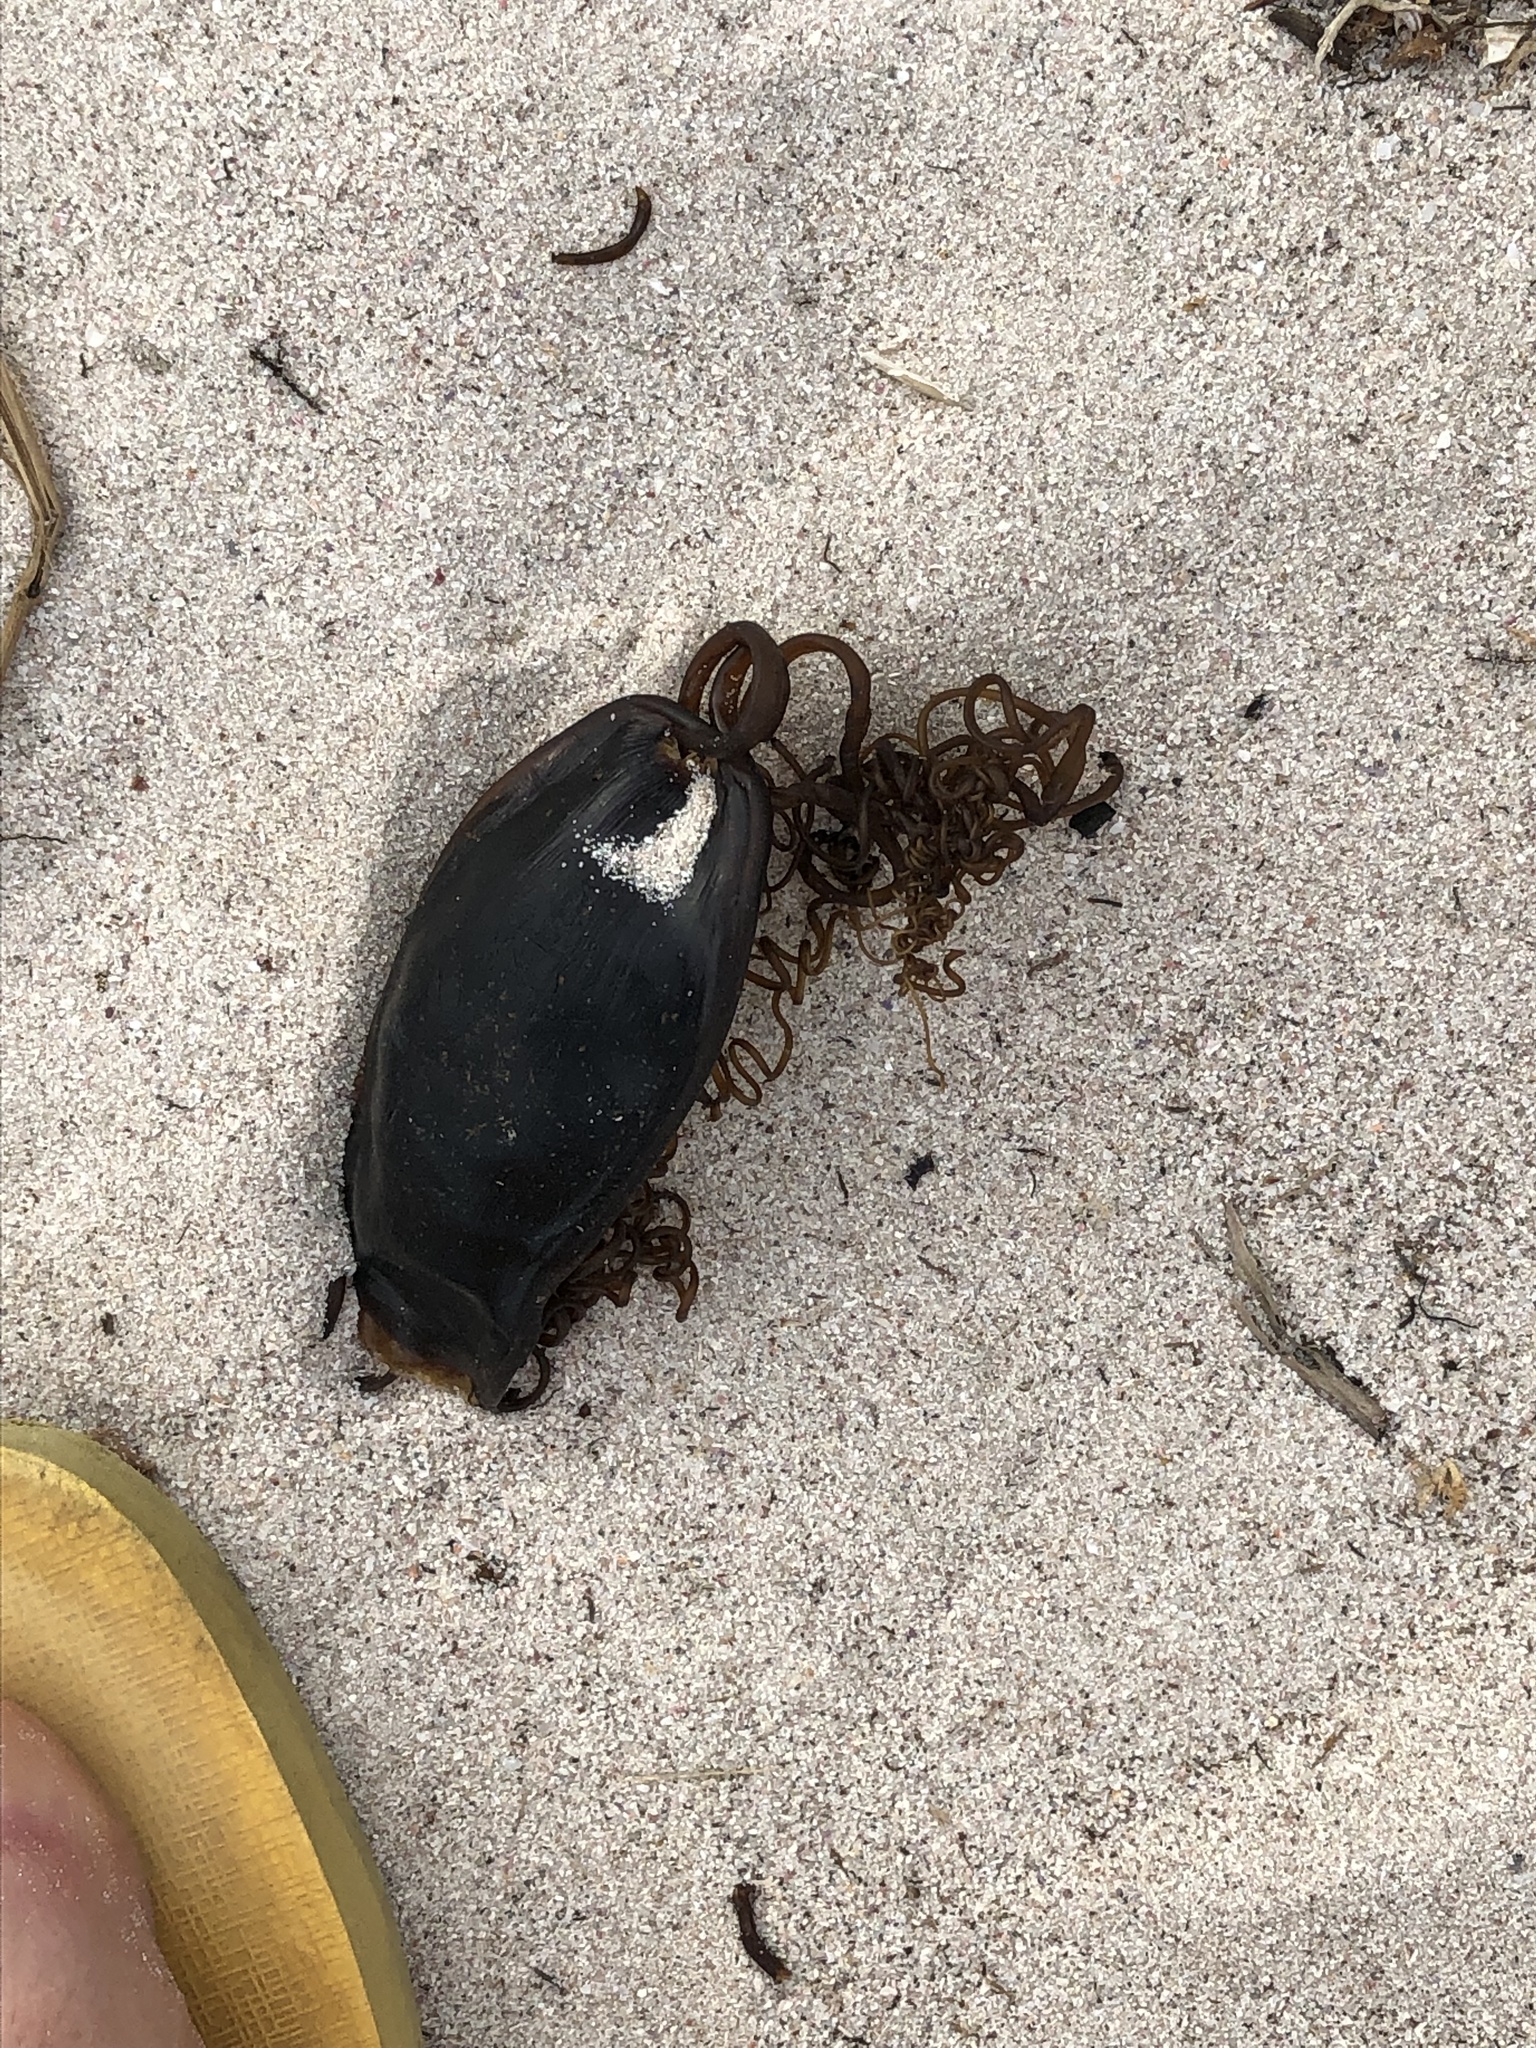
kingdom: Animalia
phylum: Chordata
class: Elasmobranchii
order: Carcharhiniformes
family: Scyliorhinidae
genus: Haploblepharus
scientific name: Haploblepharus pictus
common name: Dark shyshark
